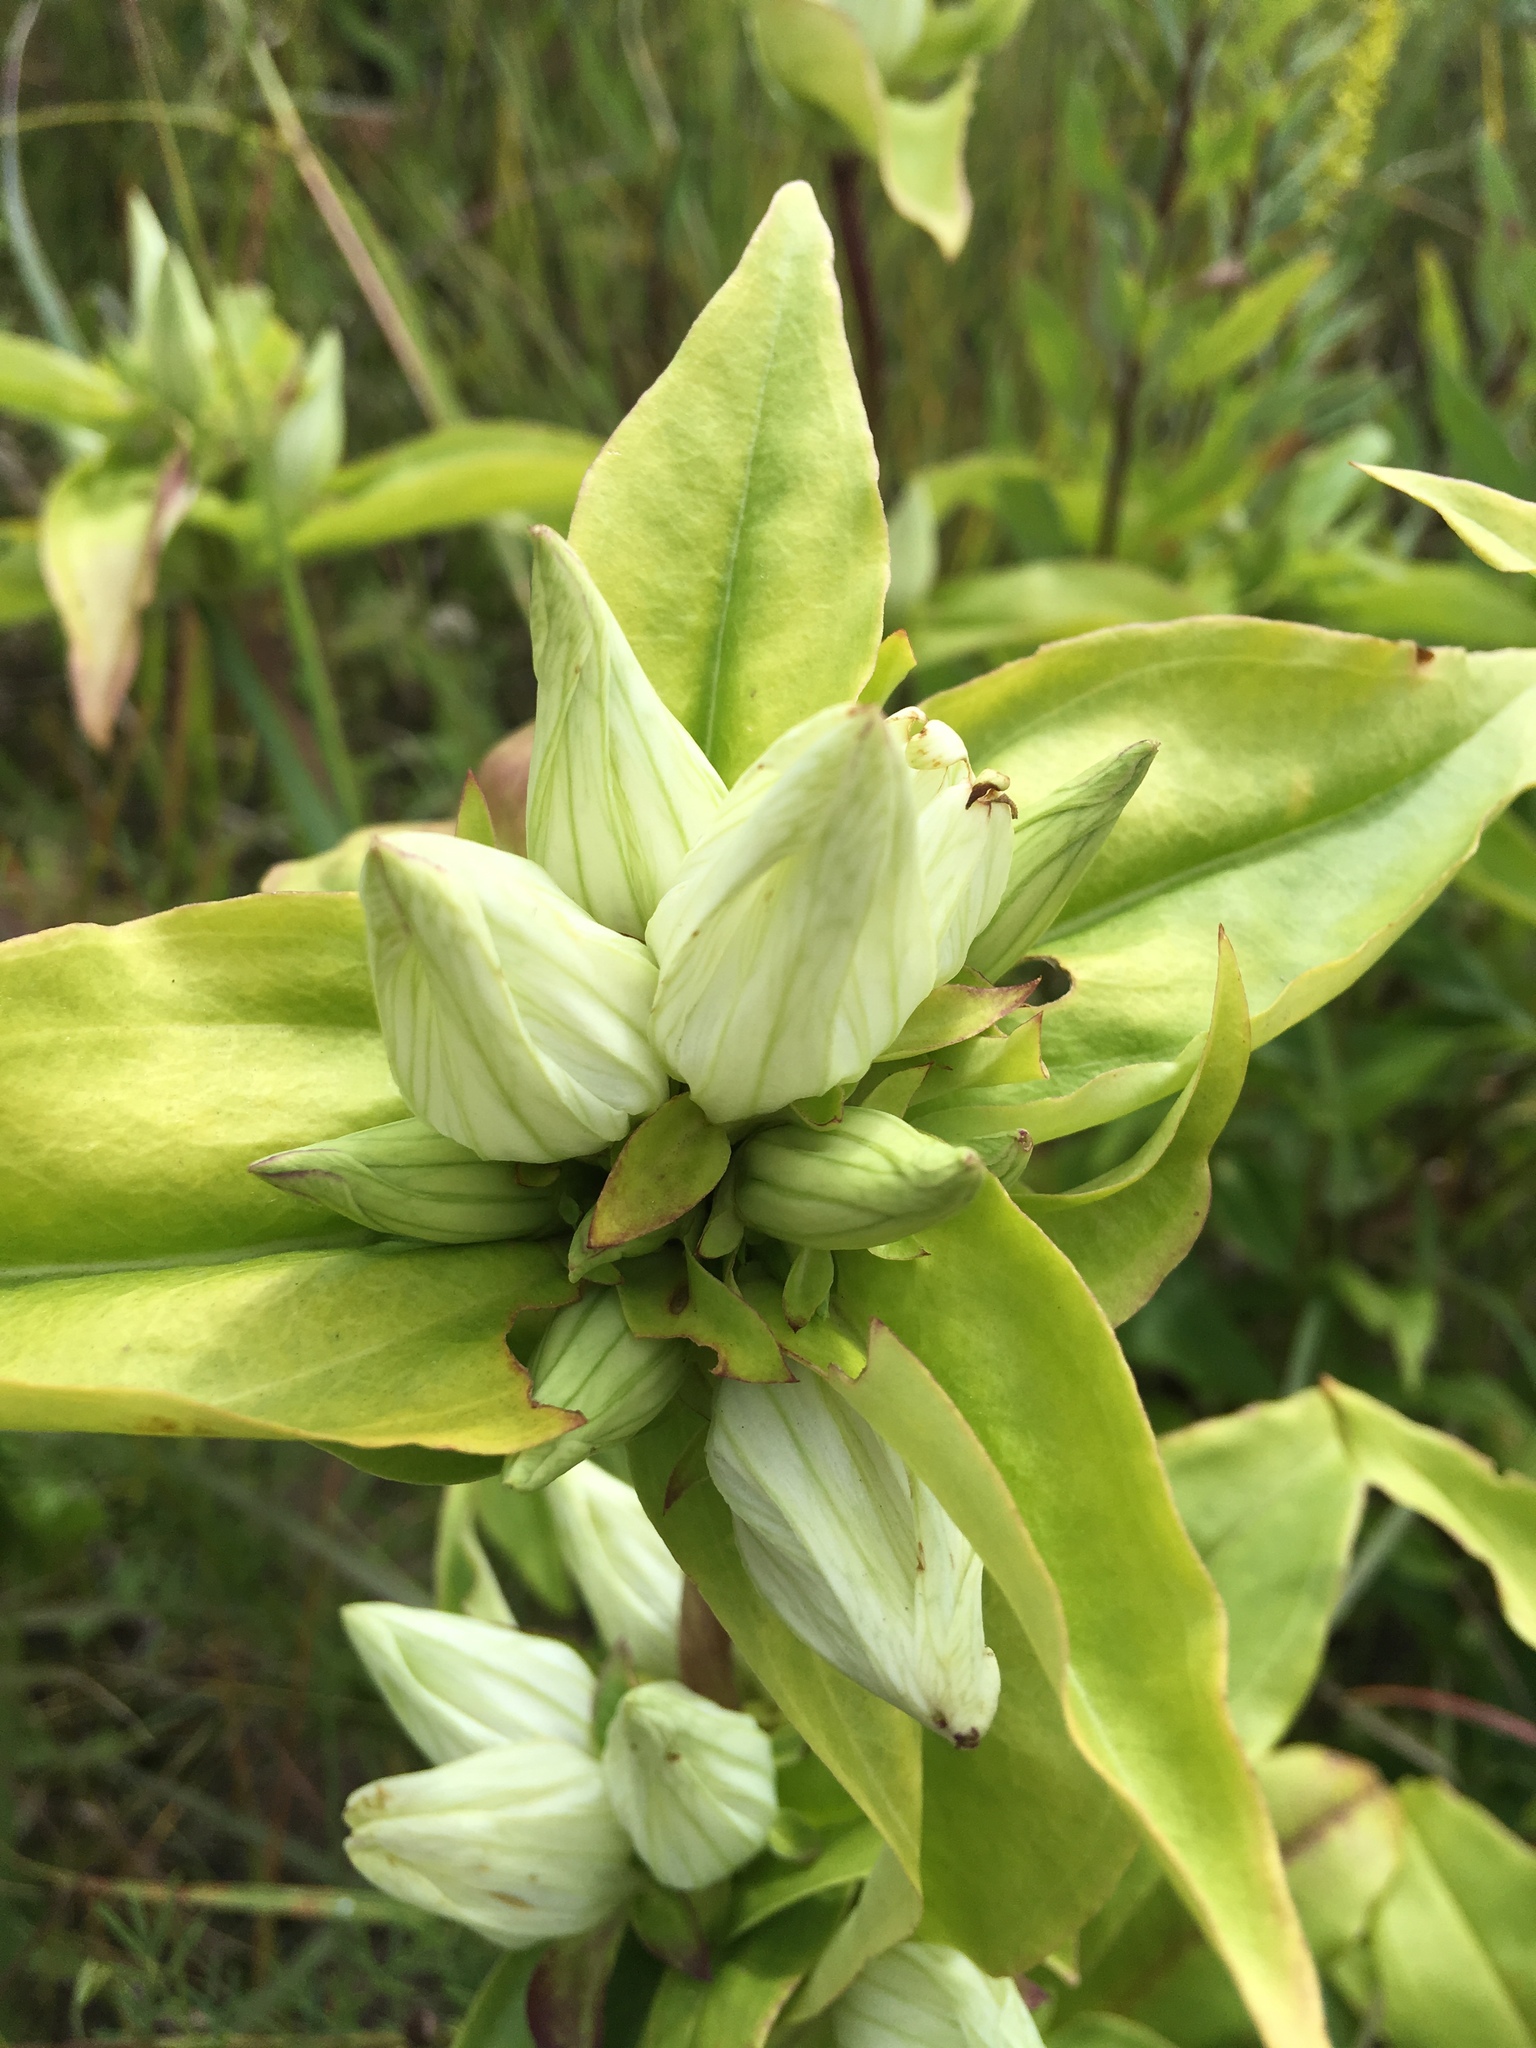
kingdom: Plantae
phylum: Tracheophyta
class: Magnoliopsida
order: Gentianales
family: Gentianaceae
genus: Gentiana
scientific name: Gentiana alba
